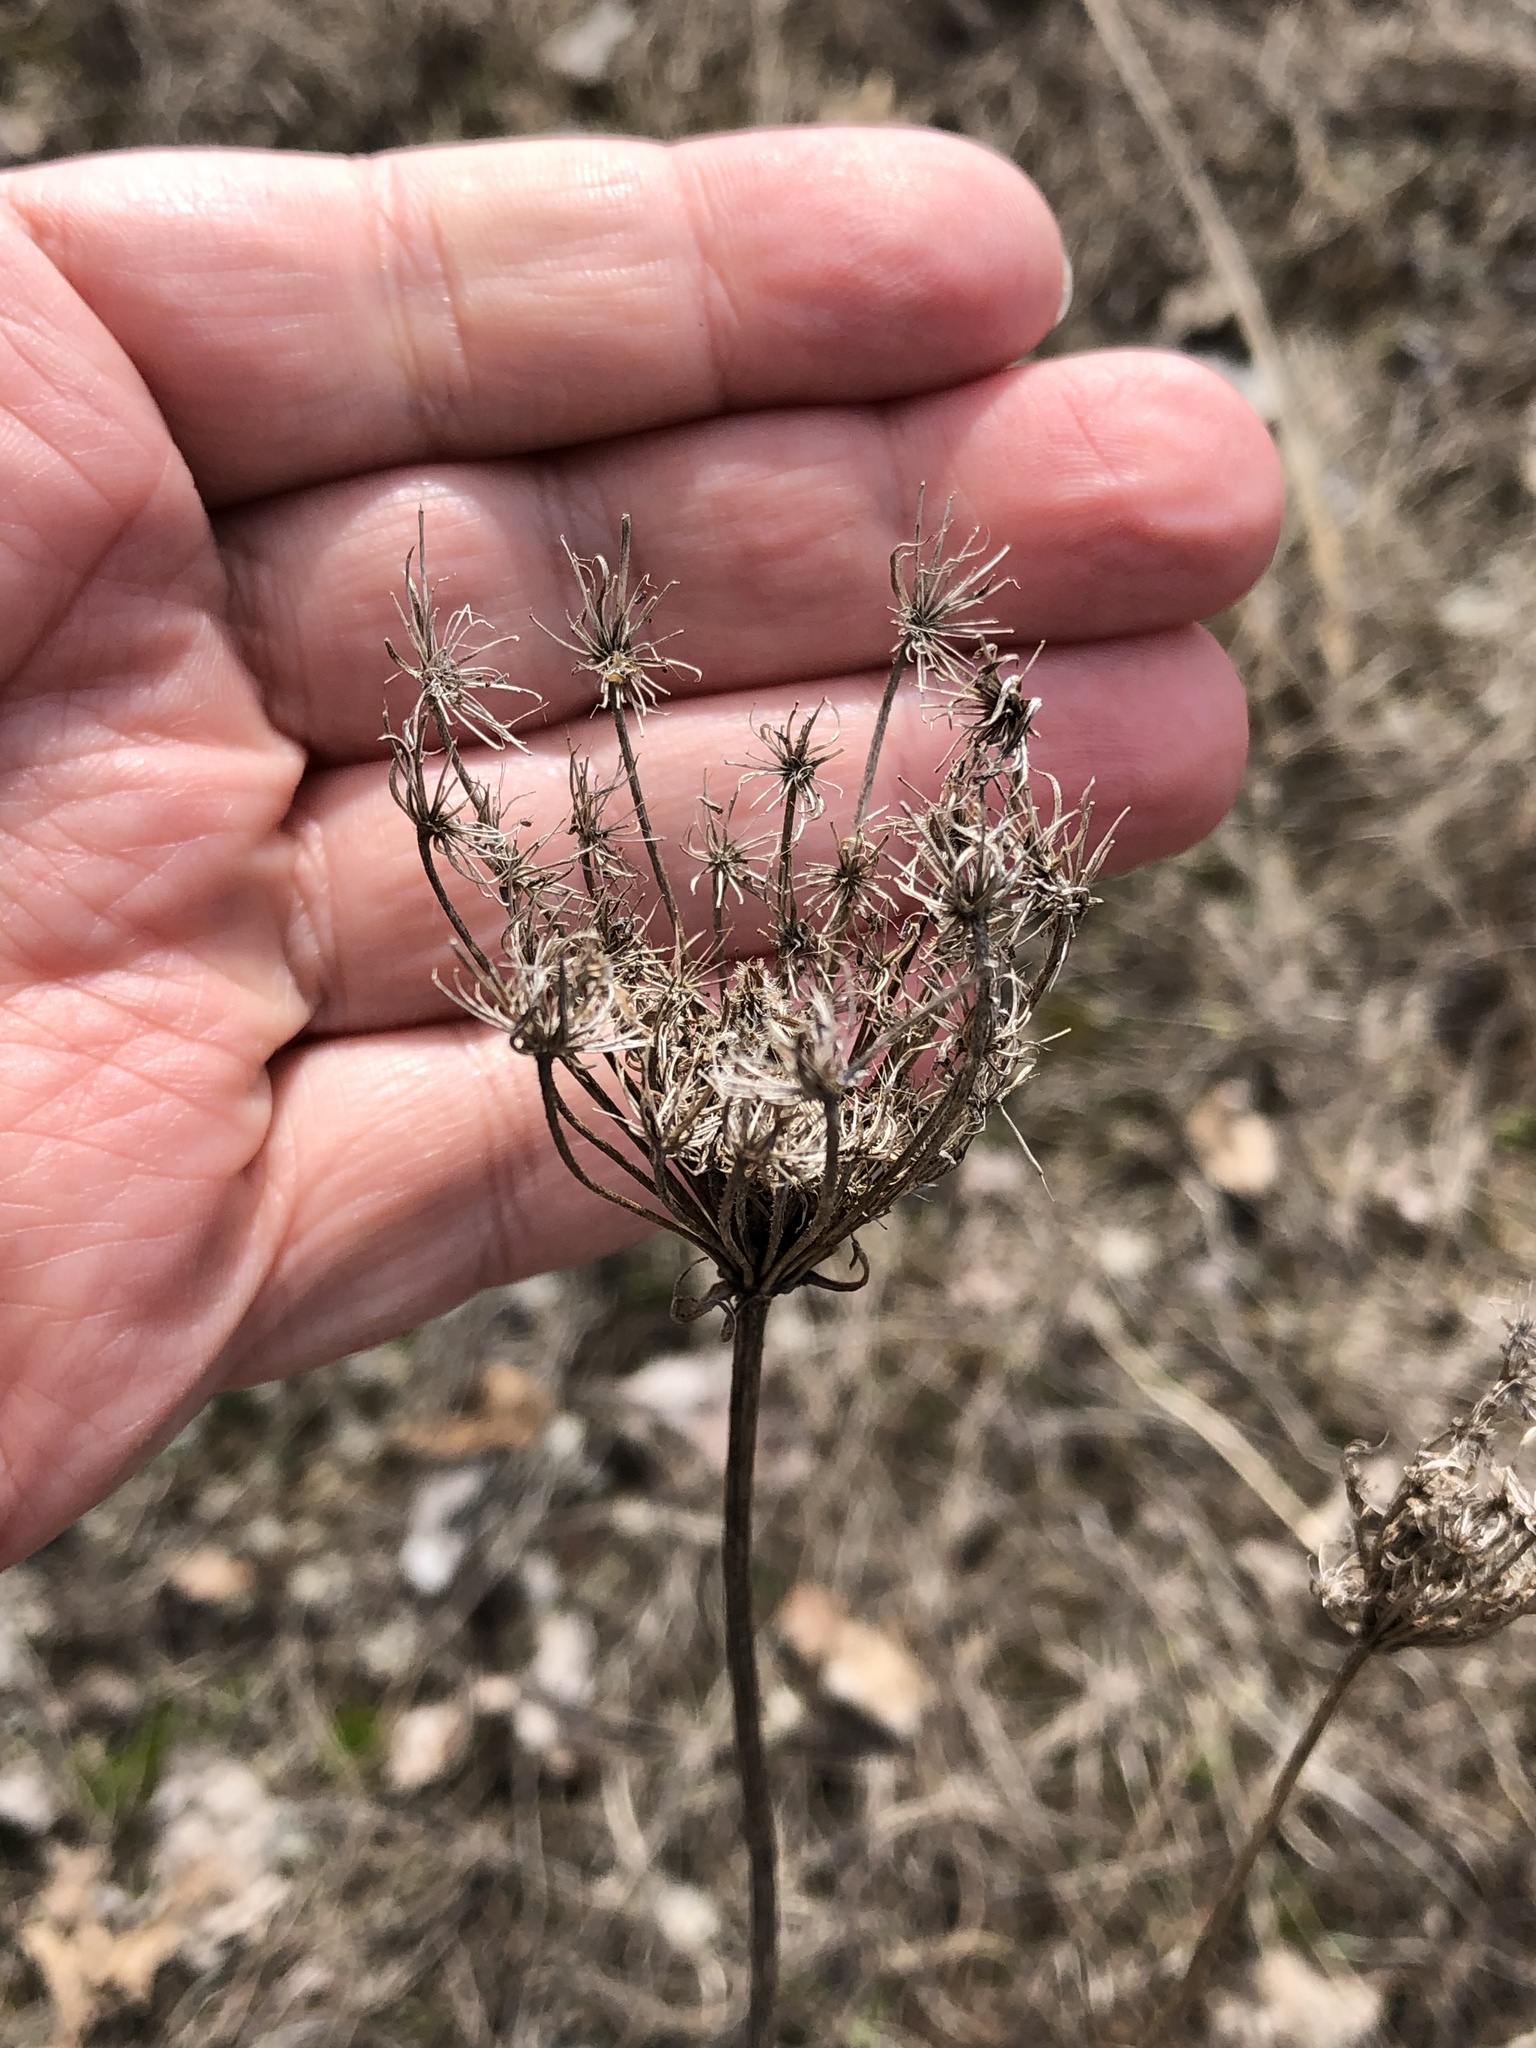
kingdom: Plantae
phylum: Tracheophyta
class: Magnoliopsida
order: Apiales
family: Apiaceae
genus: Daucus
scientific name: Daucus carota
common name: Wild carrot
